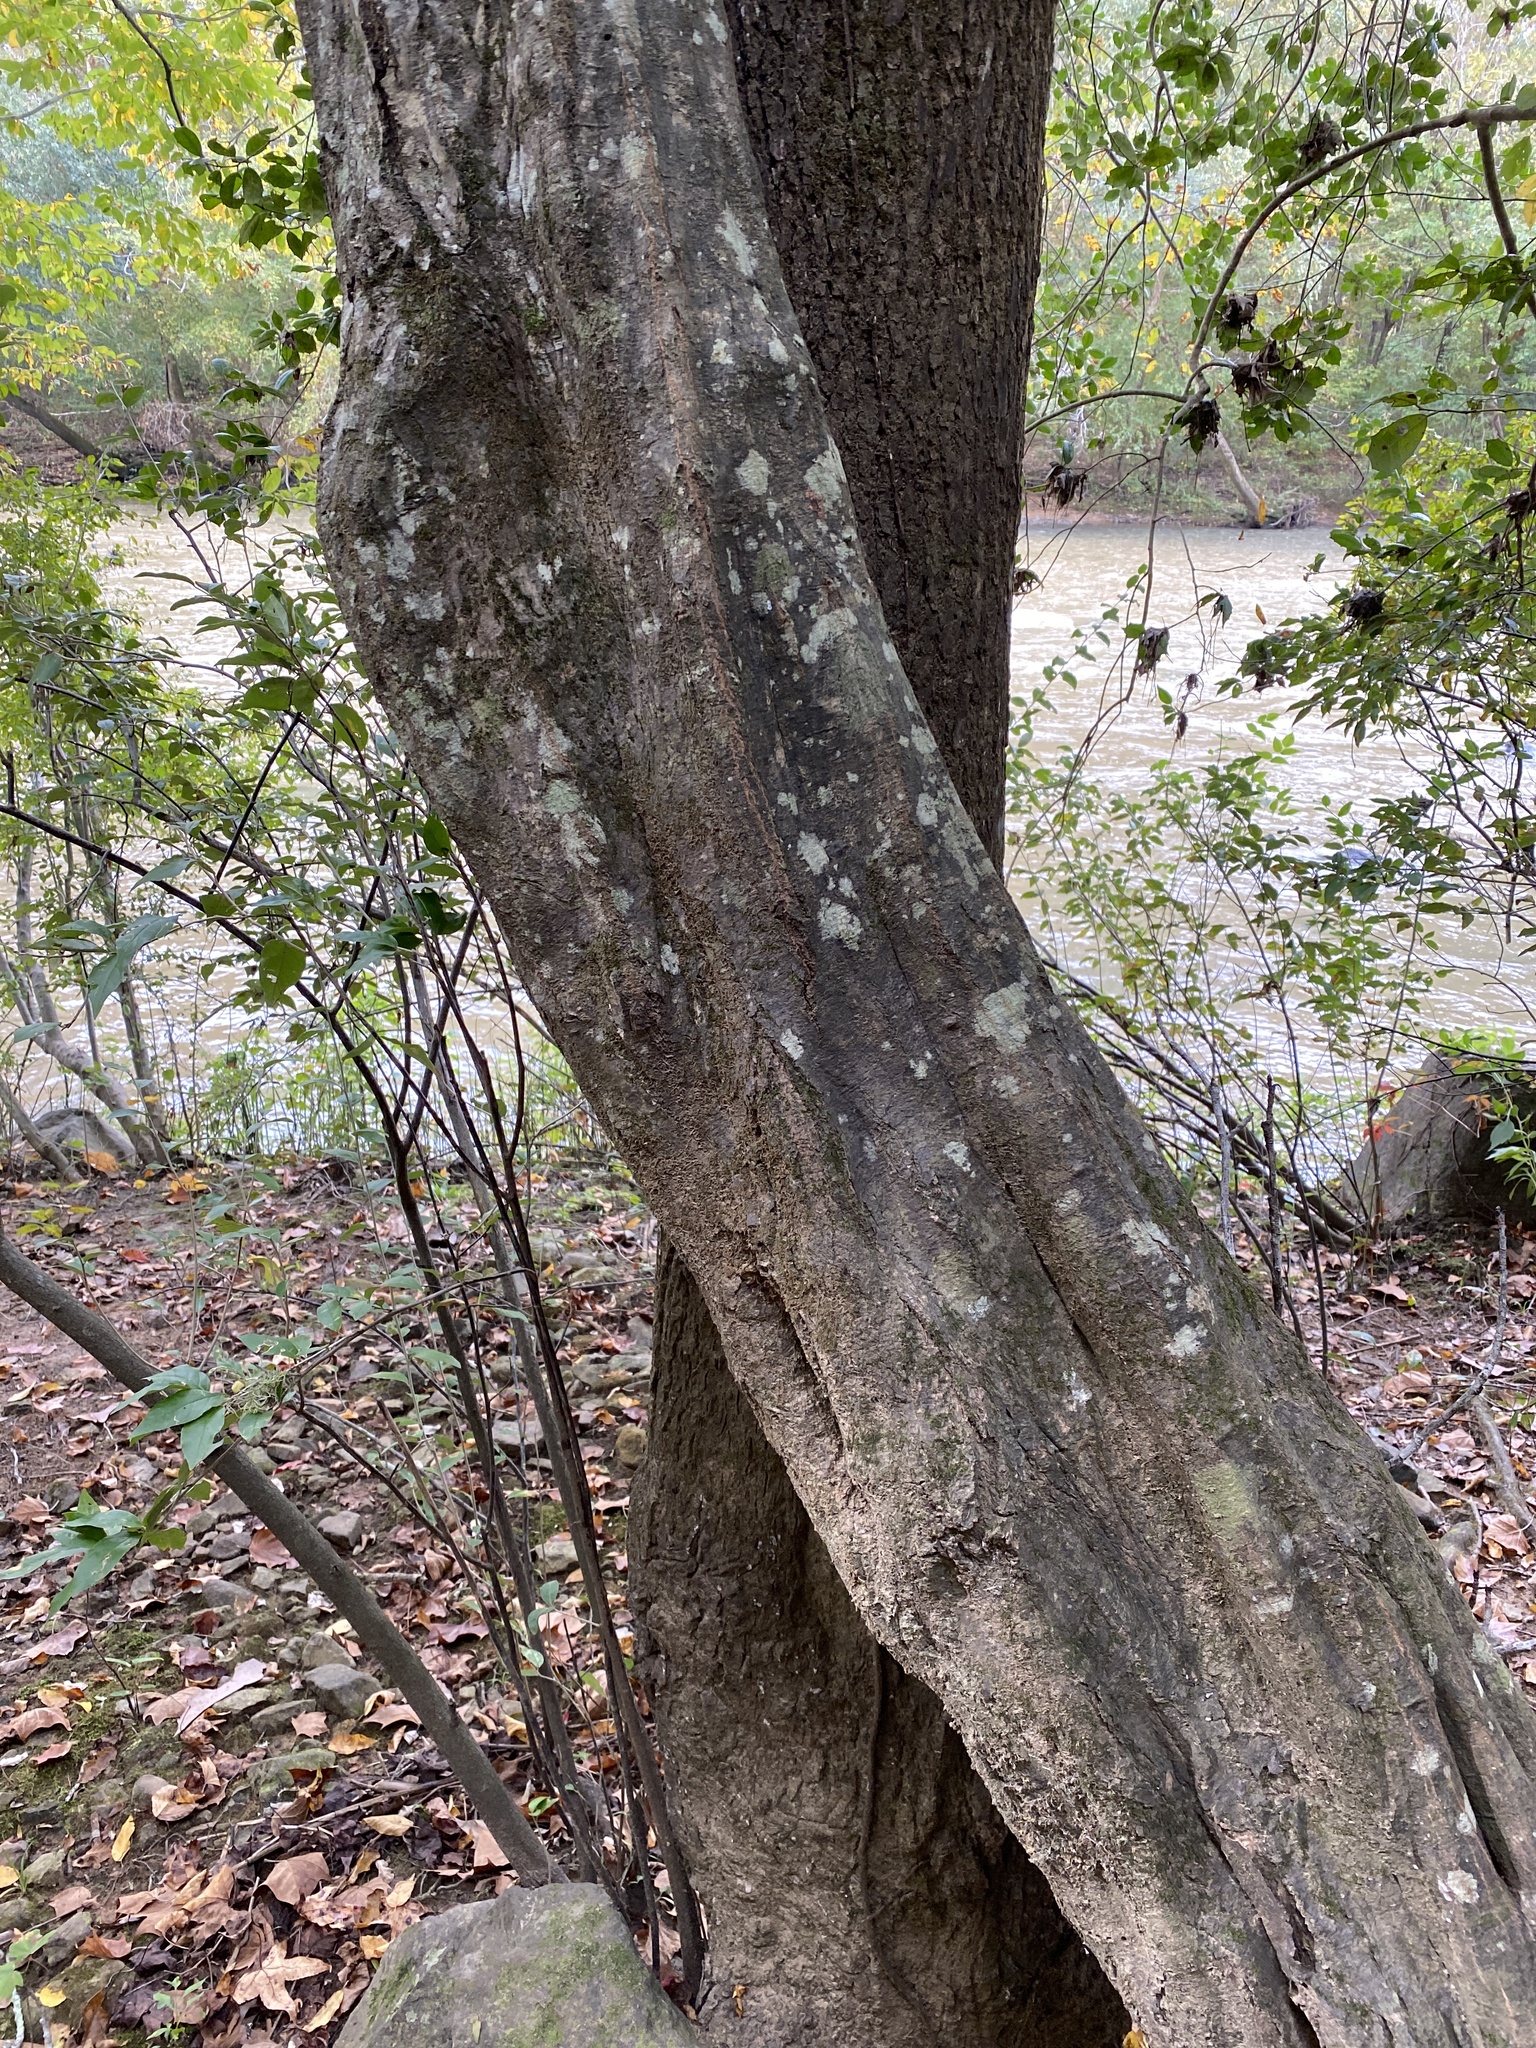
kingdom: Plantae
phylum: Tracheophyta
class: Magnoliopsida
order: Fagales
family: Betulaceae
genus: Carpinus
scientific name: Carpinus caroliniana
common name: American hornbeam
